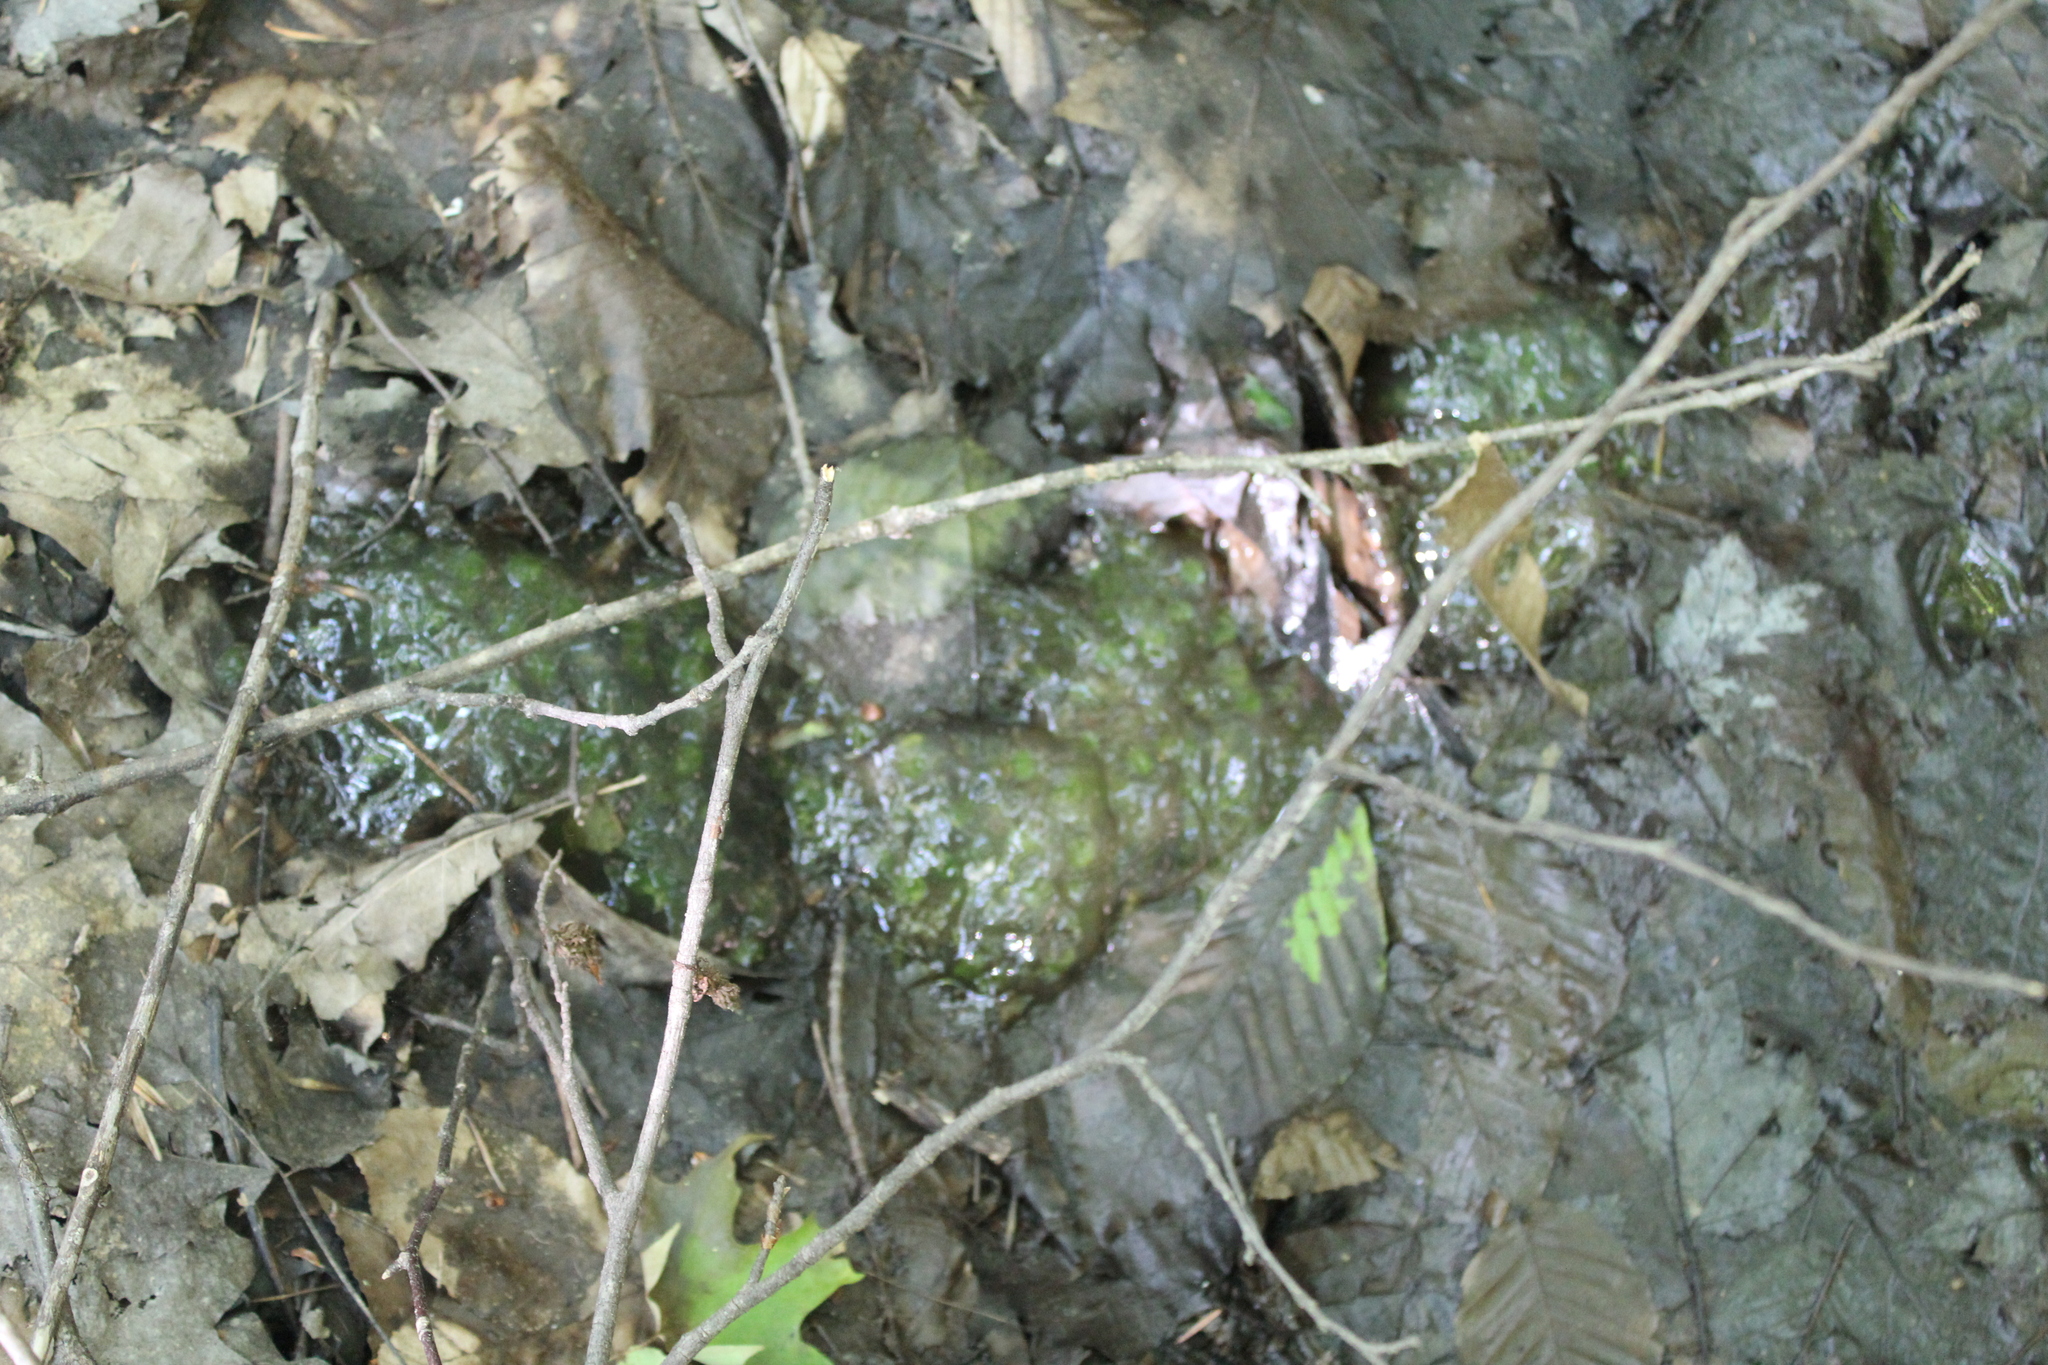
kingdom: Animalia
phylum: Chordata
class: Amphibia
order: Caudata
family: Ambystomatidae
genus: Ambystoma
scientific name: Ambystoma maculatum
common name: Spotted salamander
